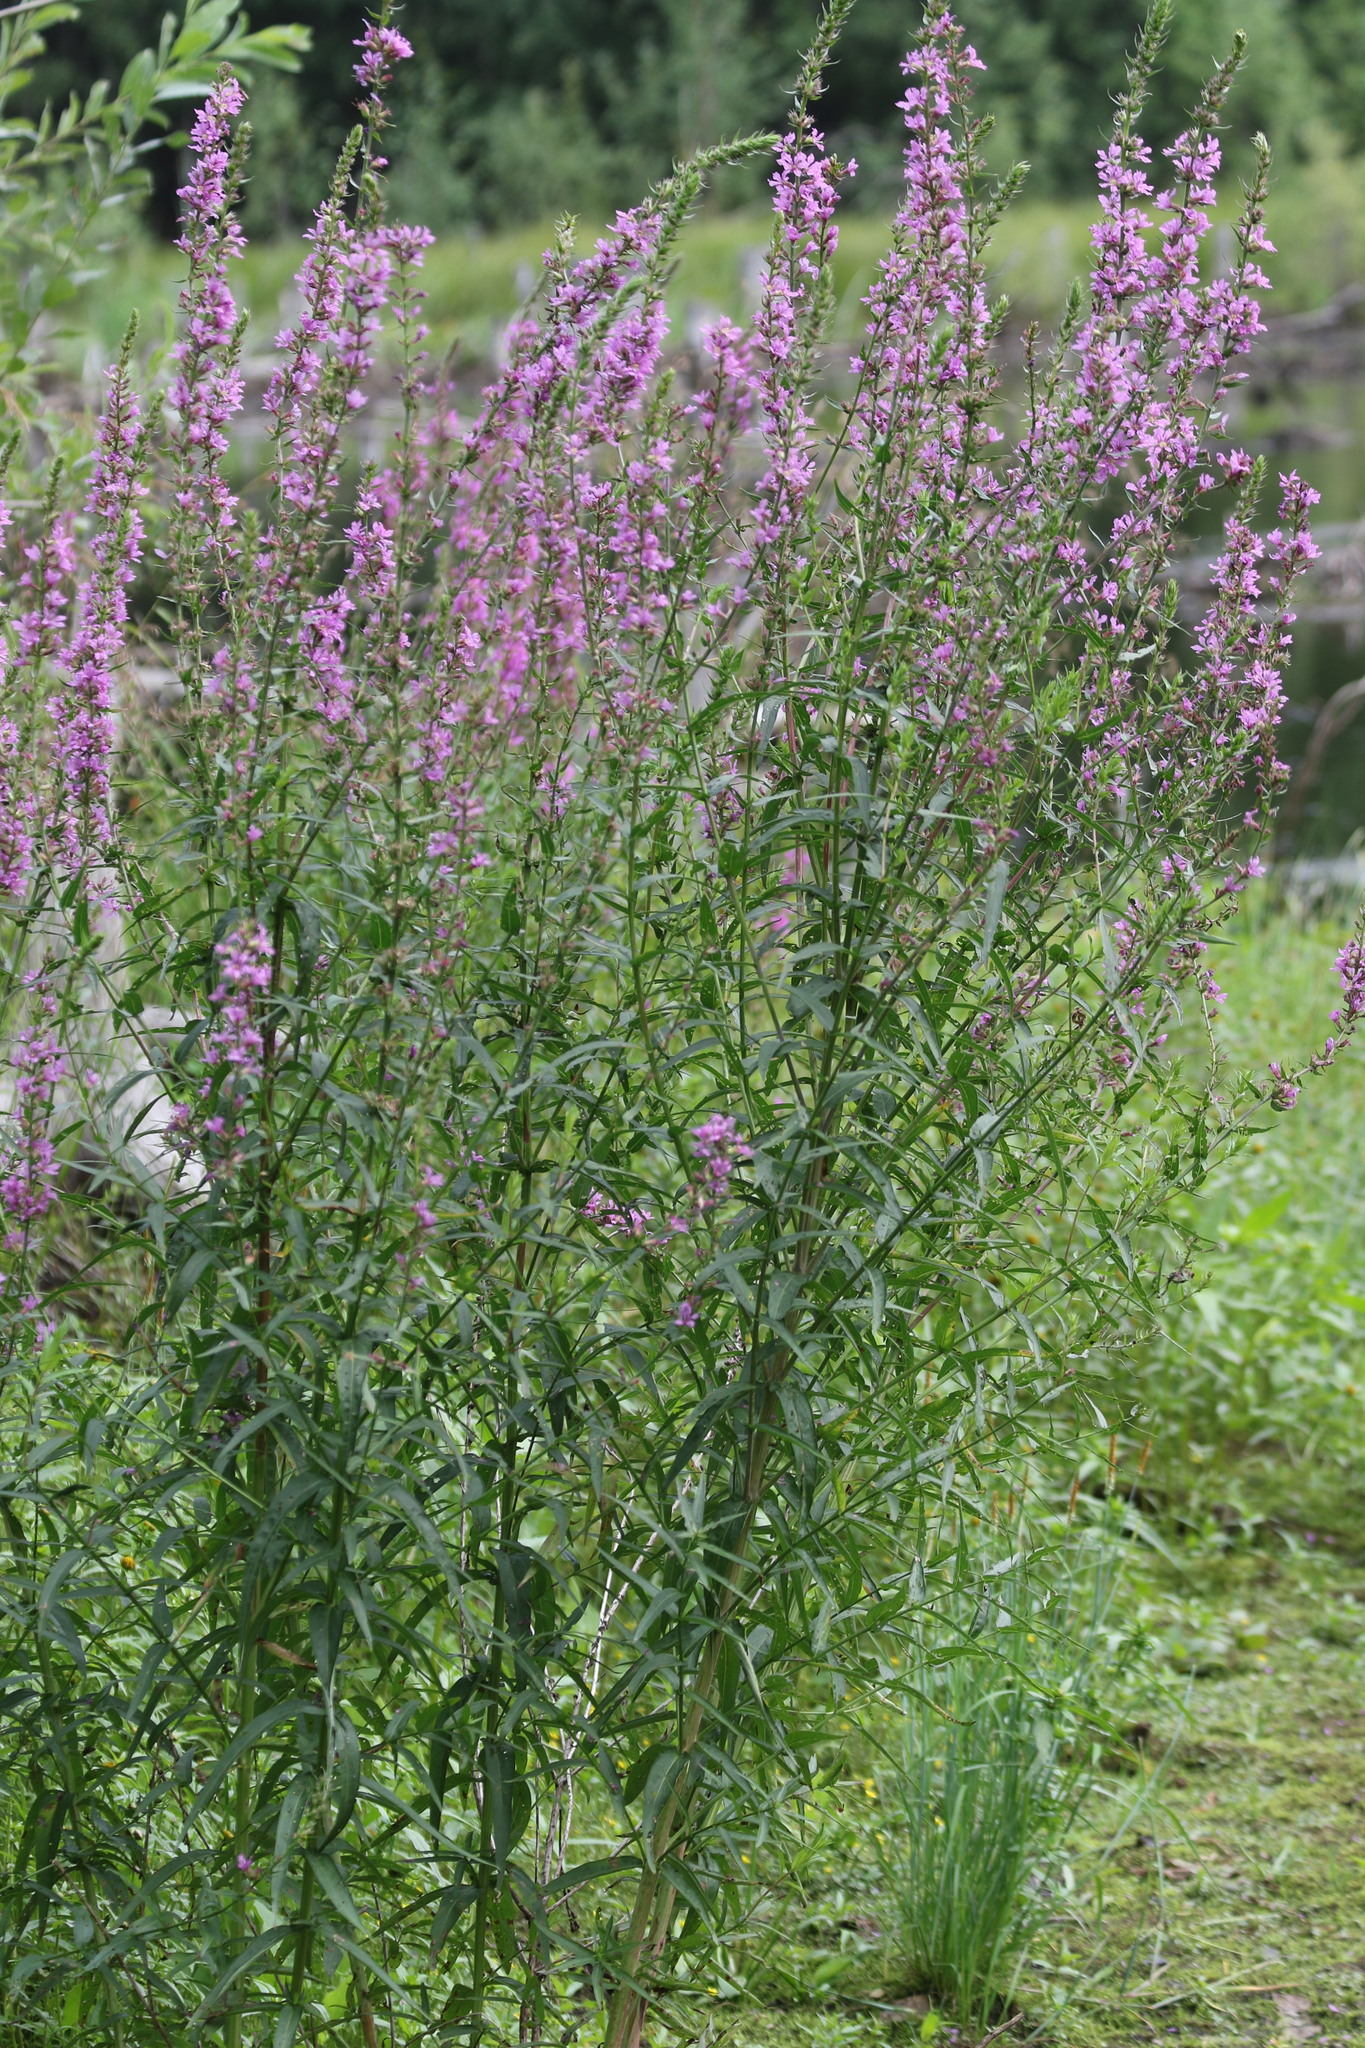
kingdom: Plantae
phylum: Tracheophyta
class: Magnoliopsida
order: Myrtales
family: Lythraceae
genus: Lythrum
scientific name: Lythrum salicaria
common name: Purple loosestrife
